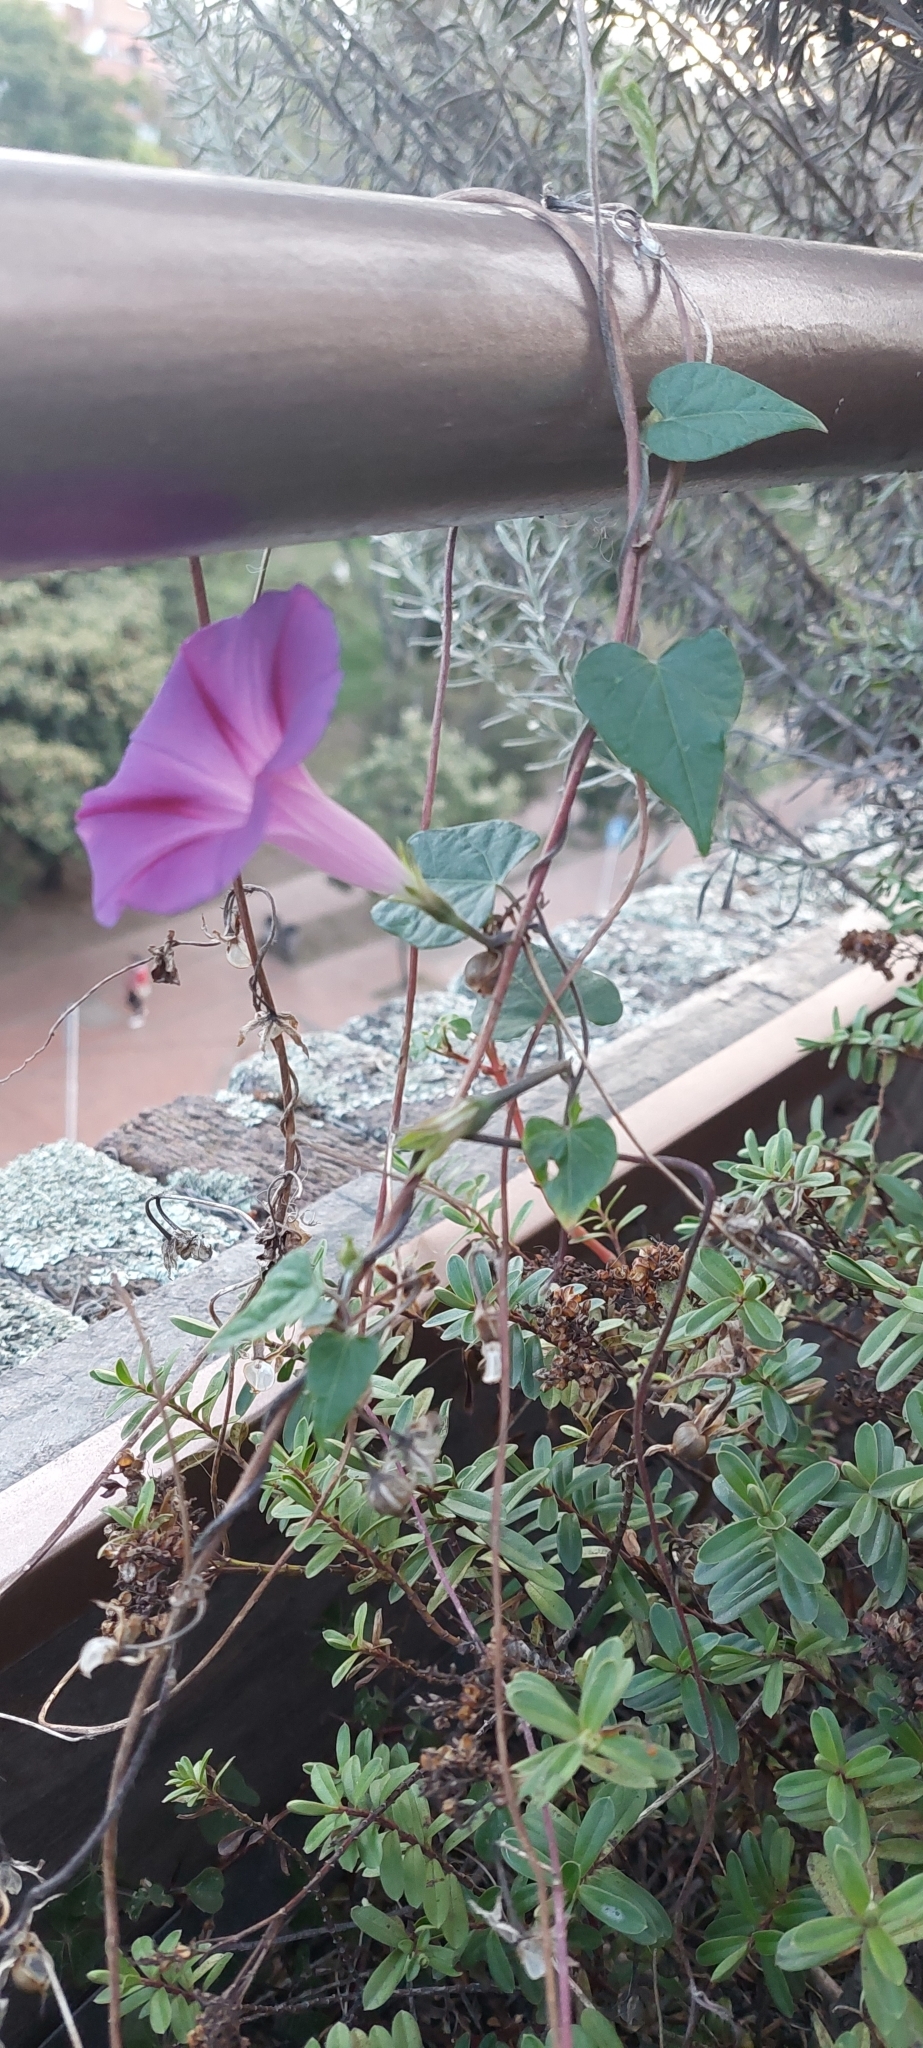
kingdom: Plantae
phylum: Tracheophyta
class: Magnoliopsida
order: Solanales
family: Convolvulaceae
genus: Ipomoea
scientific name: Ipomoea purpurea
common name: Common morning-glory
